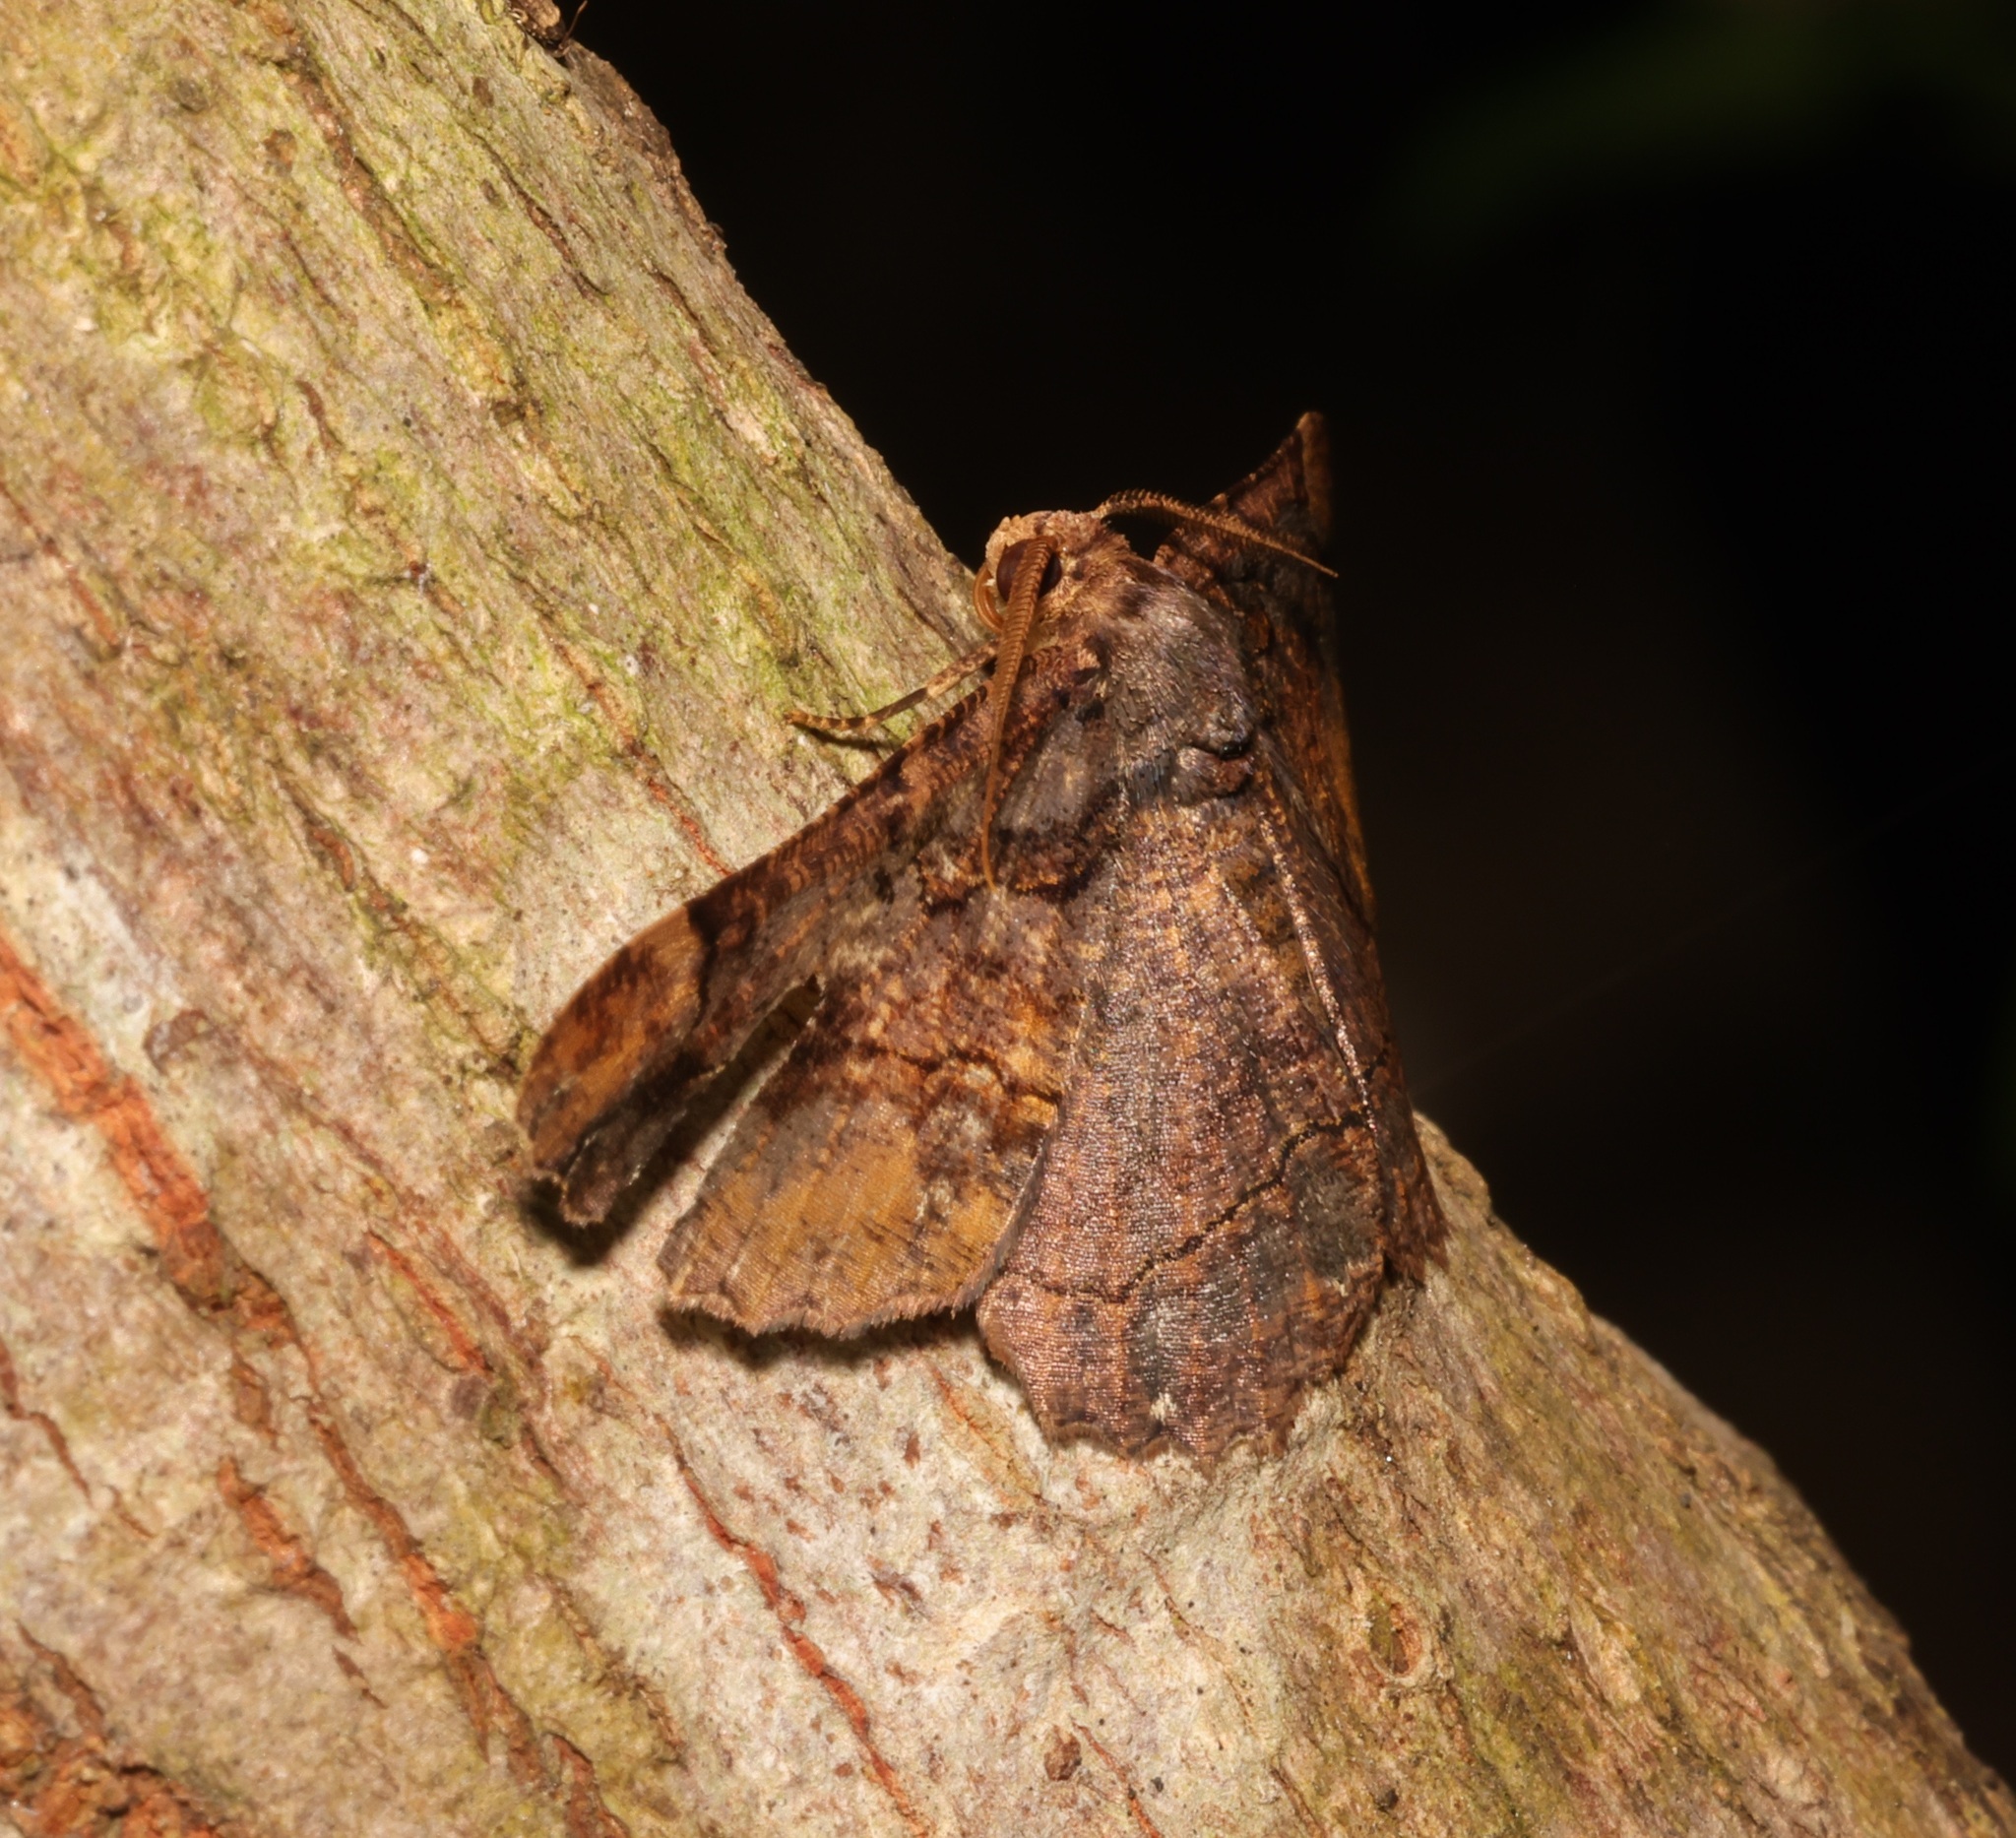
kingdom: Animalia
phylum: Arthropoda
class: Insecta
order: Lepidoptera
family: Geometridae
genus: Dasyboarmia
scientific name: Dasyboarmia subpilosa
